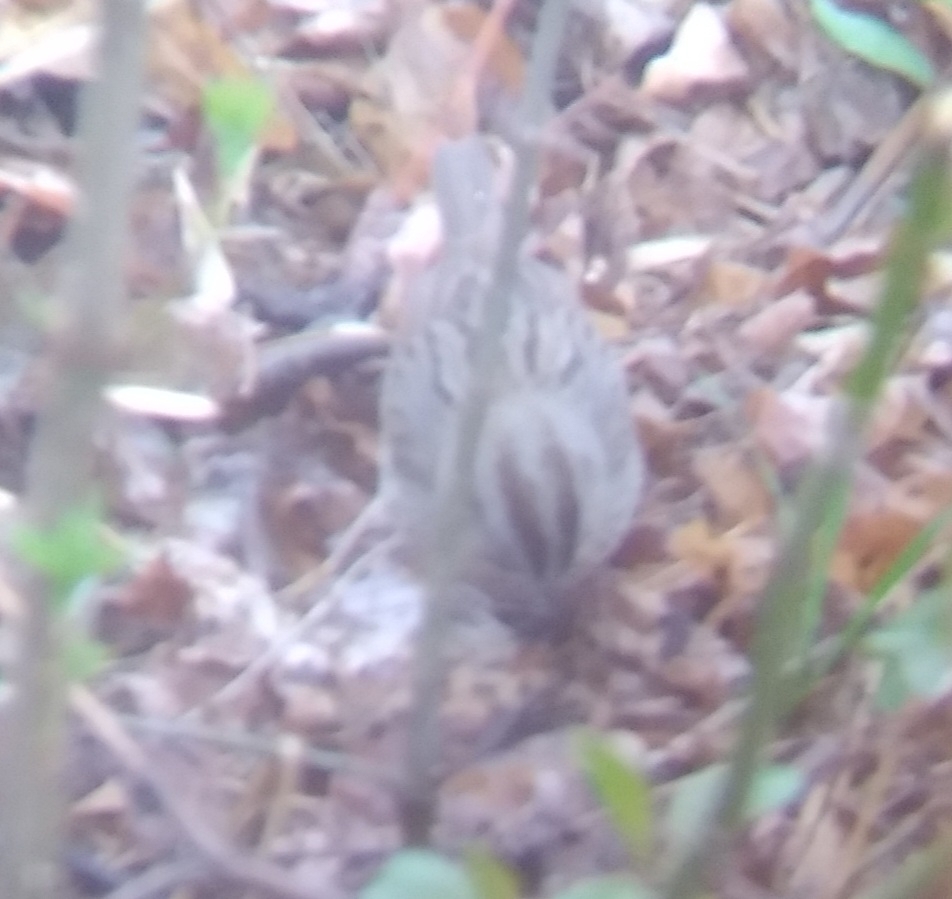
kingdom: Animalia
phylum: Chordata
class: Aves
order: Passeriformes
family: Passerellidae
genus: Melospiza
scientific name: Melospiza lincolnii
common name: Lincoln's sparrow
